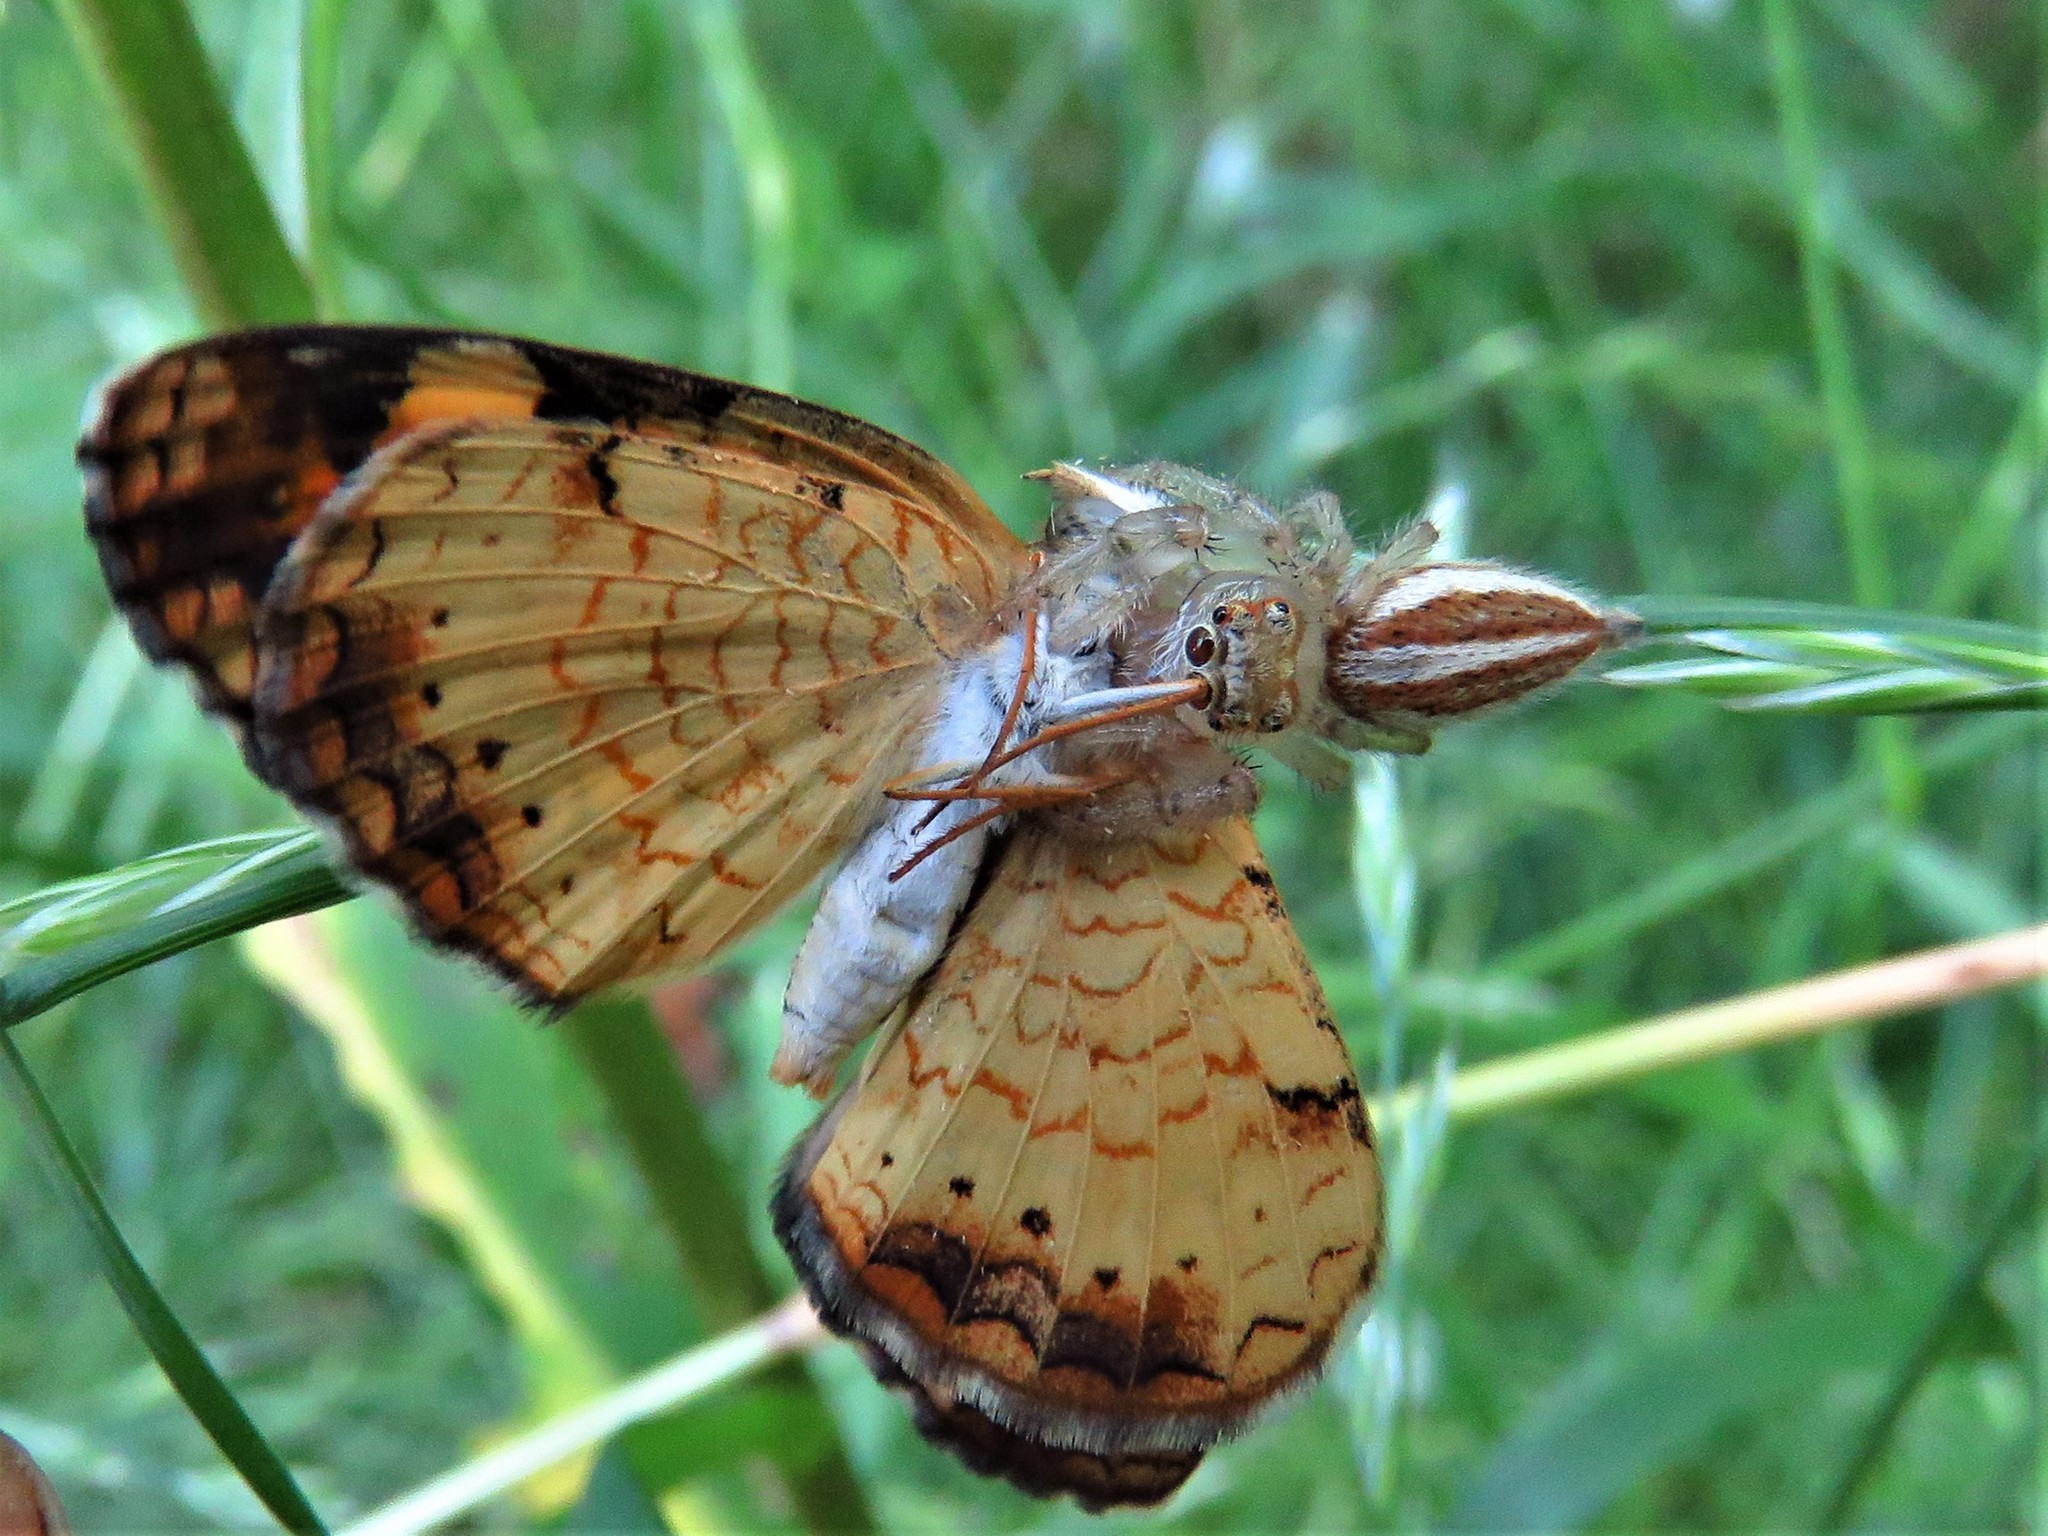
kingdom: Animalia
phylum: Arthropoda
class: Insecta
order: Lepidoptera
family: Nymphalidae
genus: Phyciodes
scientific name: Phyciodes tharos
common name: Pearl crescent
